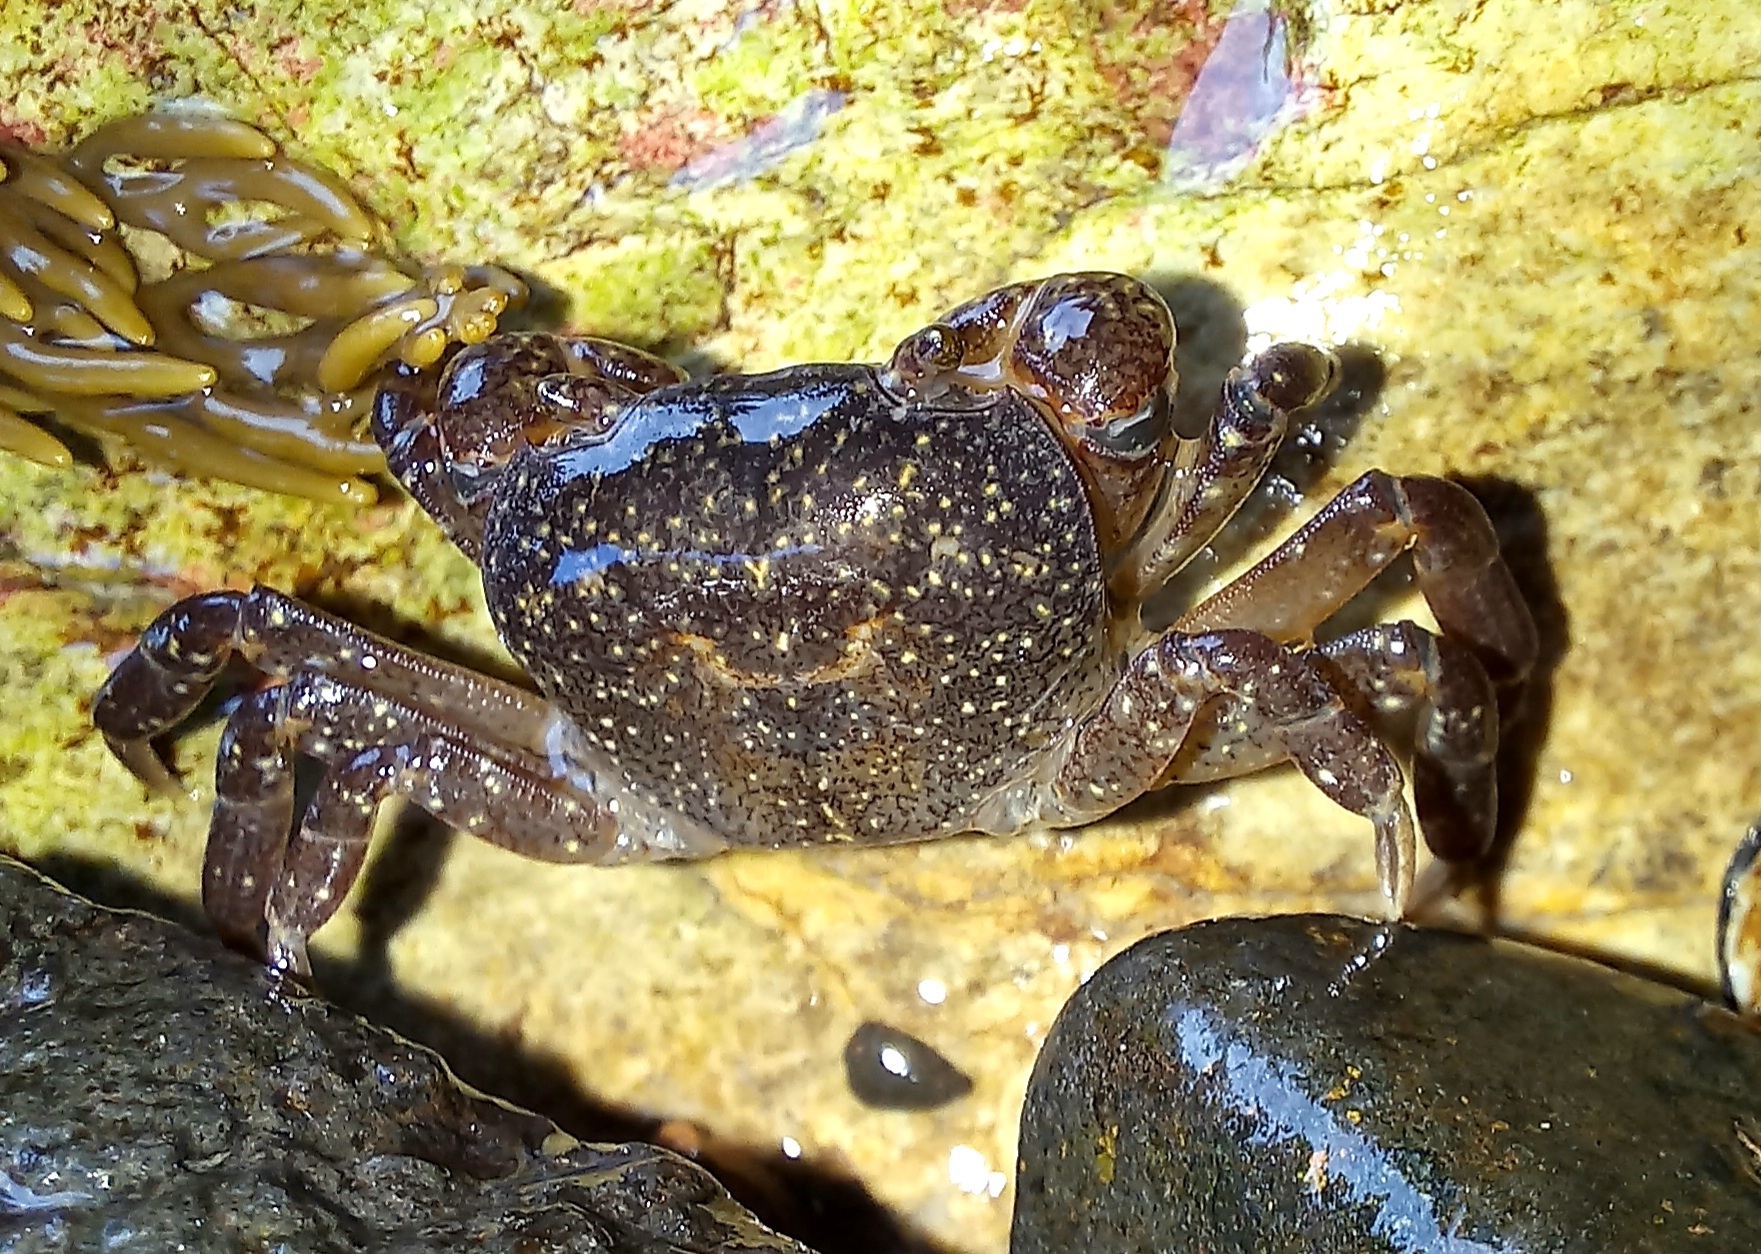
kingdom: Animalia
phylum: Arthropoda
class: Malacostraca
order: Decapoda
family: Varunidae
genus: Cyclograpsus
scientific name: Cyclograpsus lavauxi
